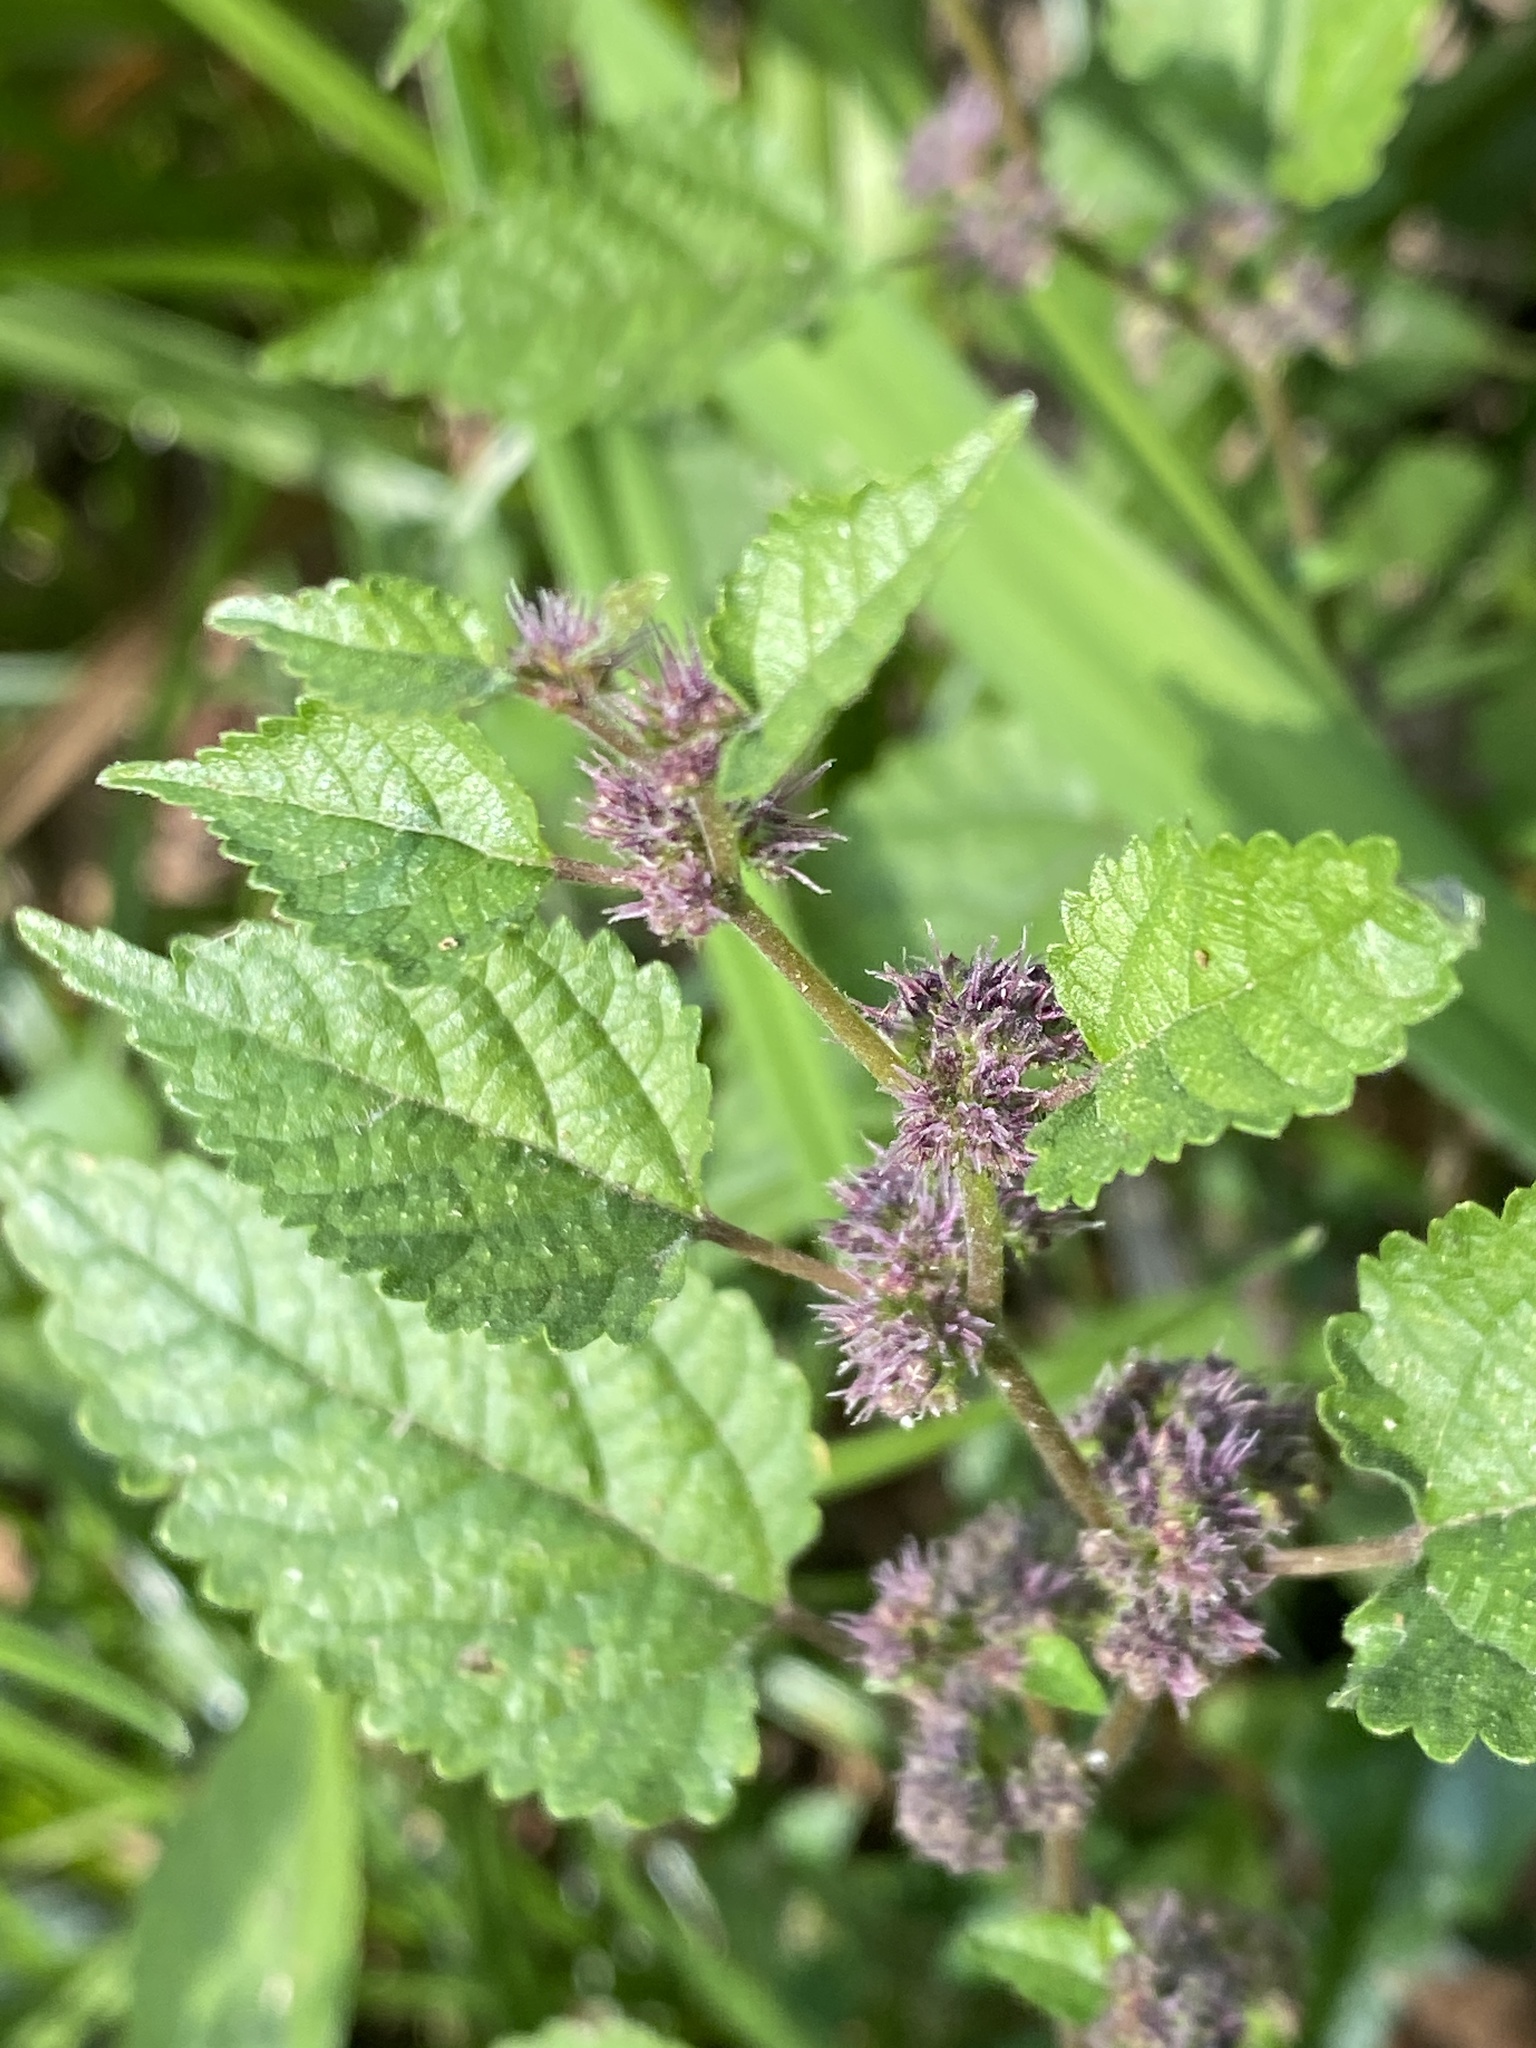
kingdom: Plantae
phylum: Tracheophyta
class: Magnoliopsida
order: Rosales
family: Moraceae
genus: Fatoua
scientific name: Fatoua villosa
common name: Hairy crabweed
